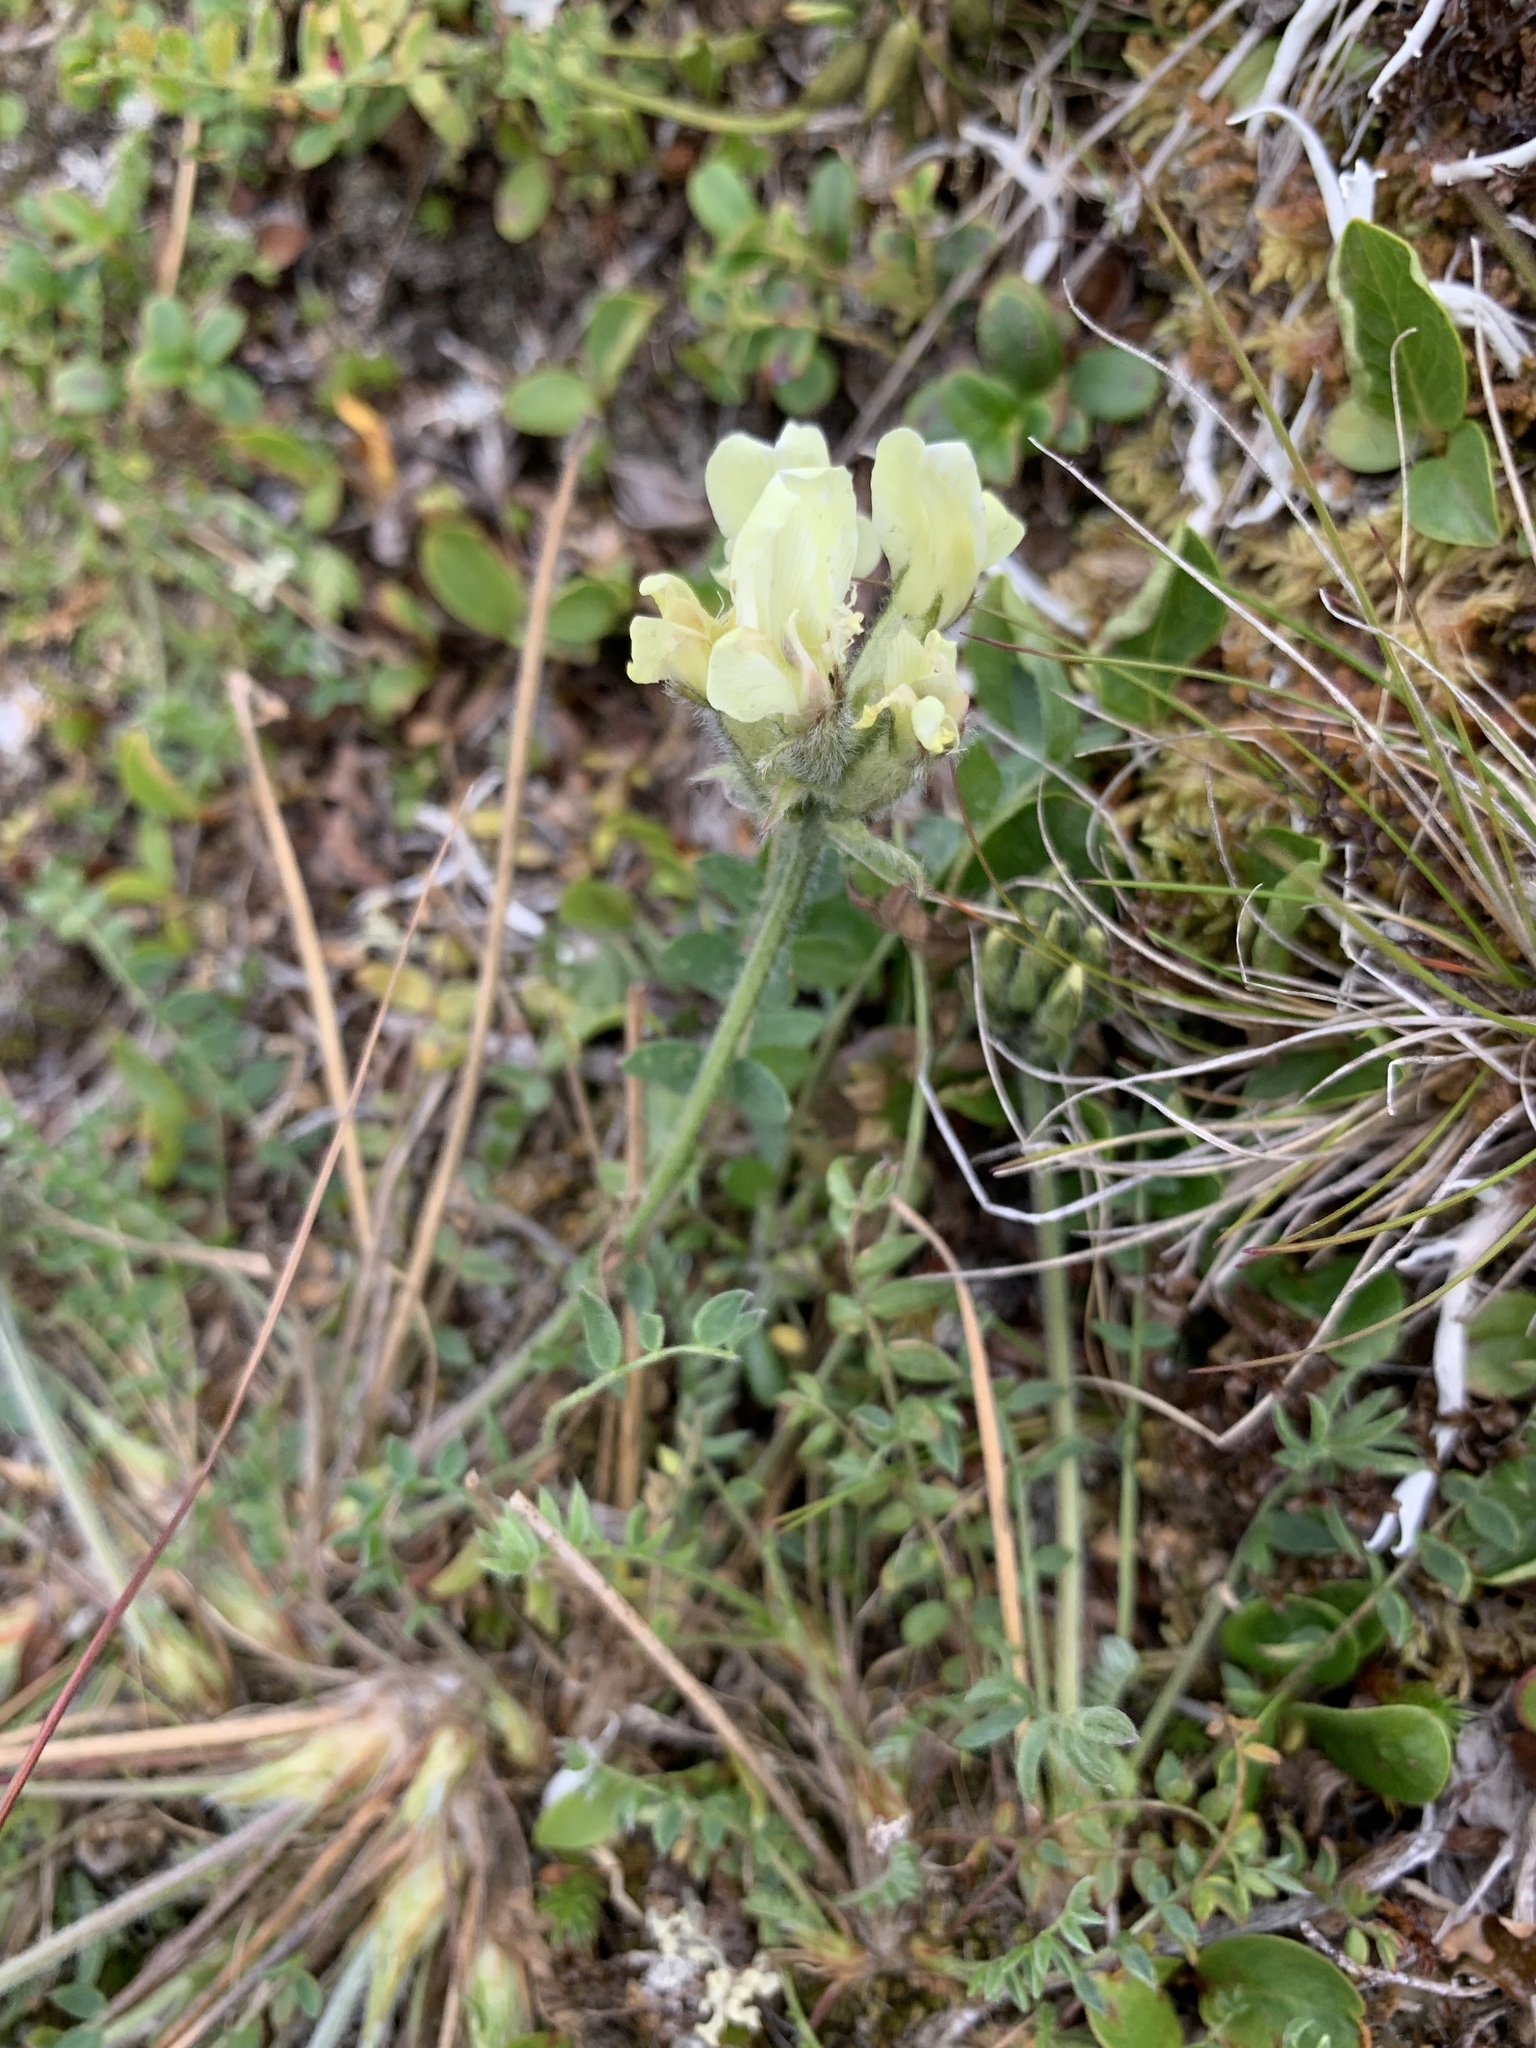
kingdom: Plantae
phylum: Tracheophyta
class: Magnoliopsida
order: Fabales
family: Fabaceae
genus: Oxytropis
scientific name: Oxytropis sordida
